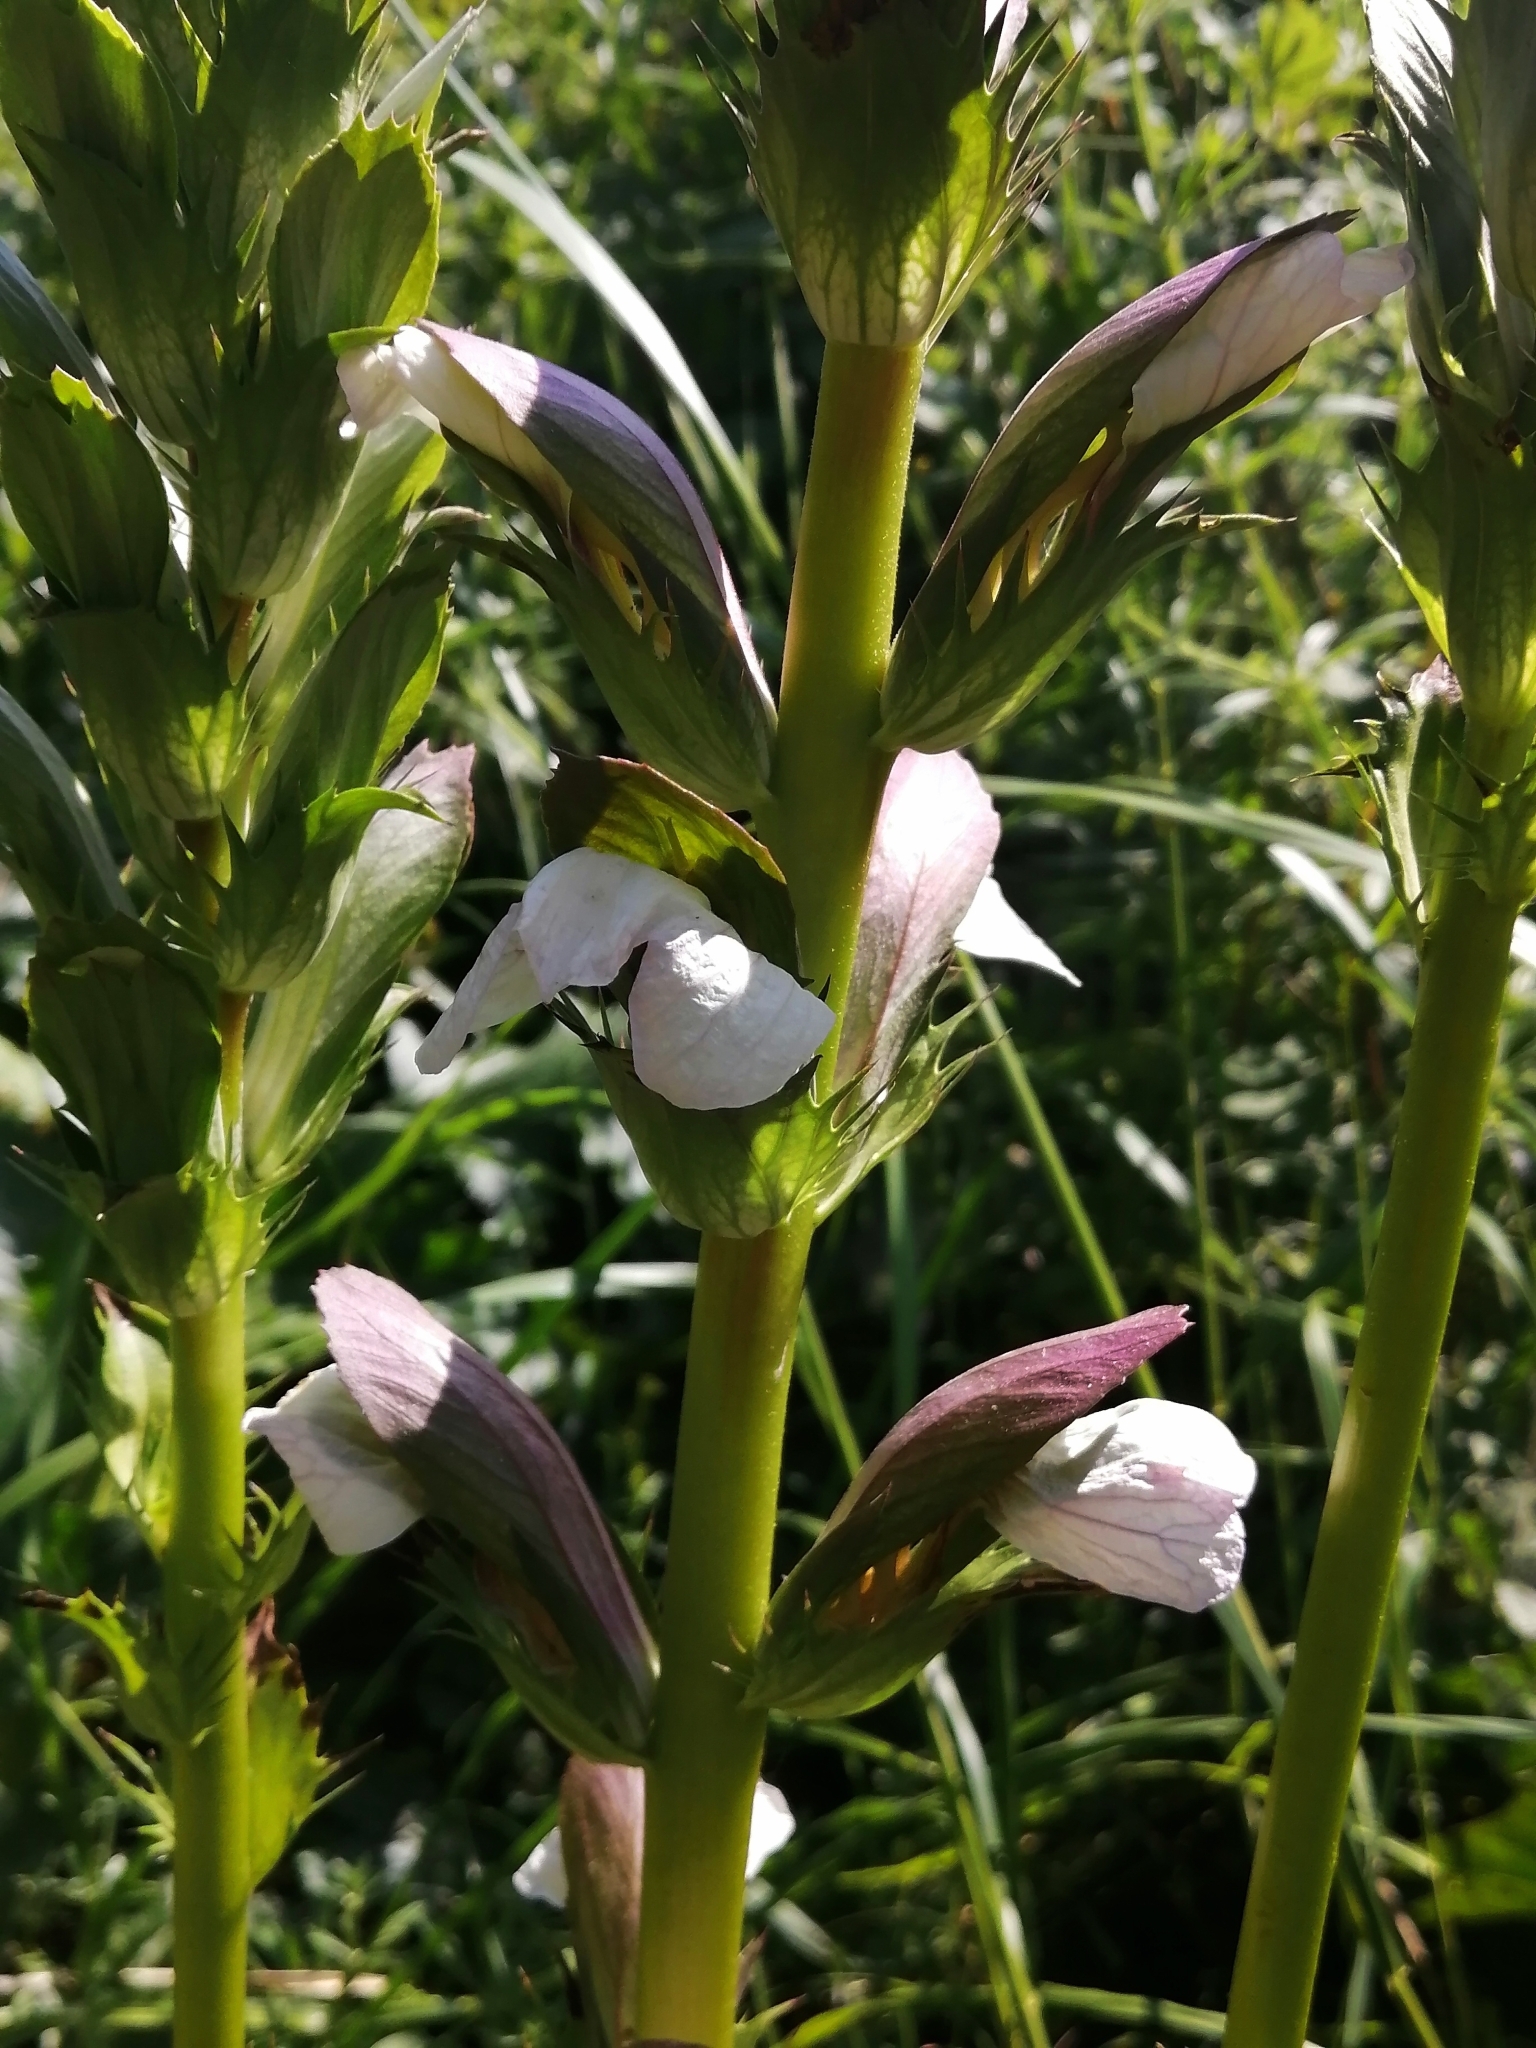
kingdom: Plantae
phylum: Tracheophyta
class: Magnoliopsida
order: Lamiales
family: Acanthaceae
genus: Acanthus
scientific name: Acanthus mollis
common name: Bear's-breech
